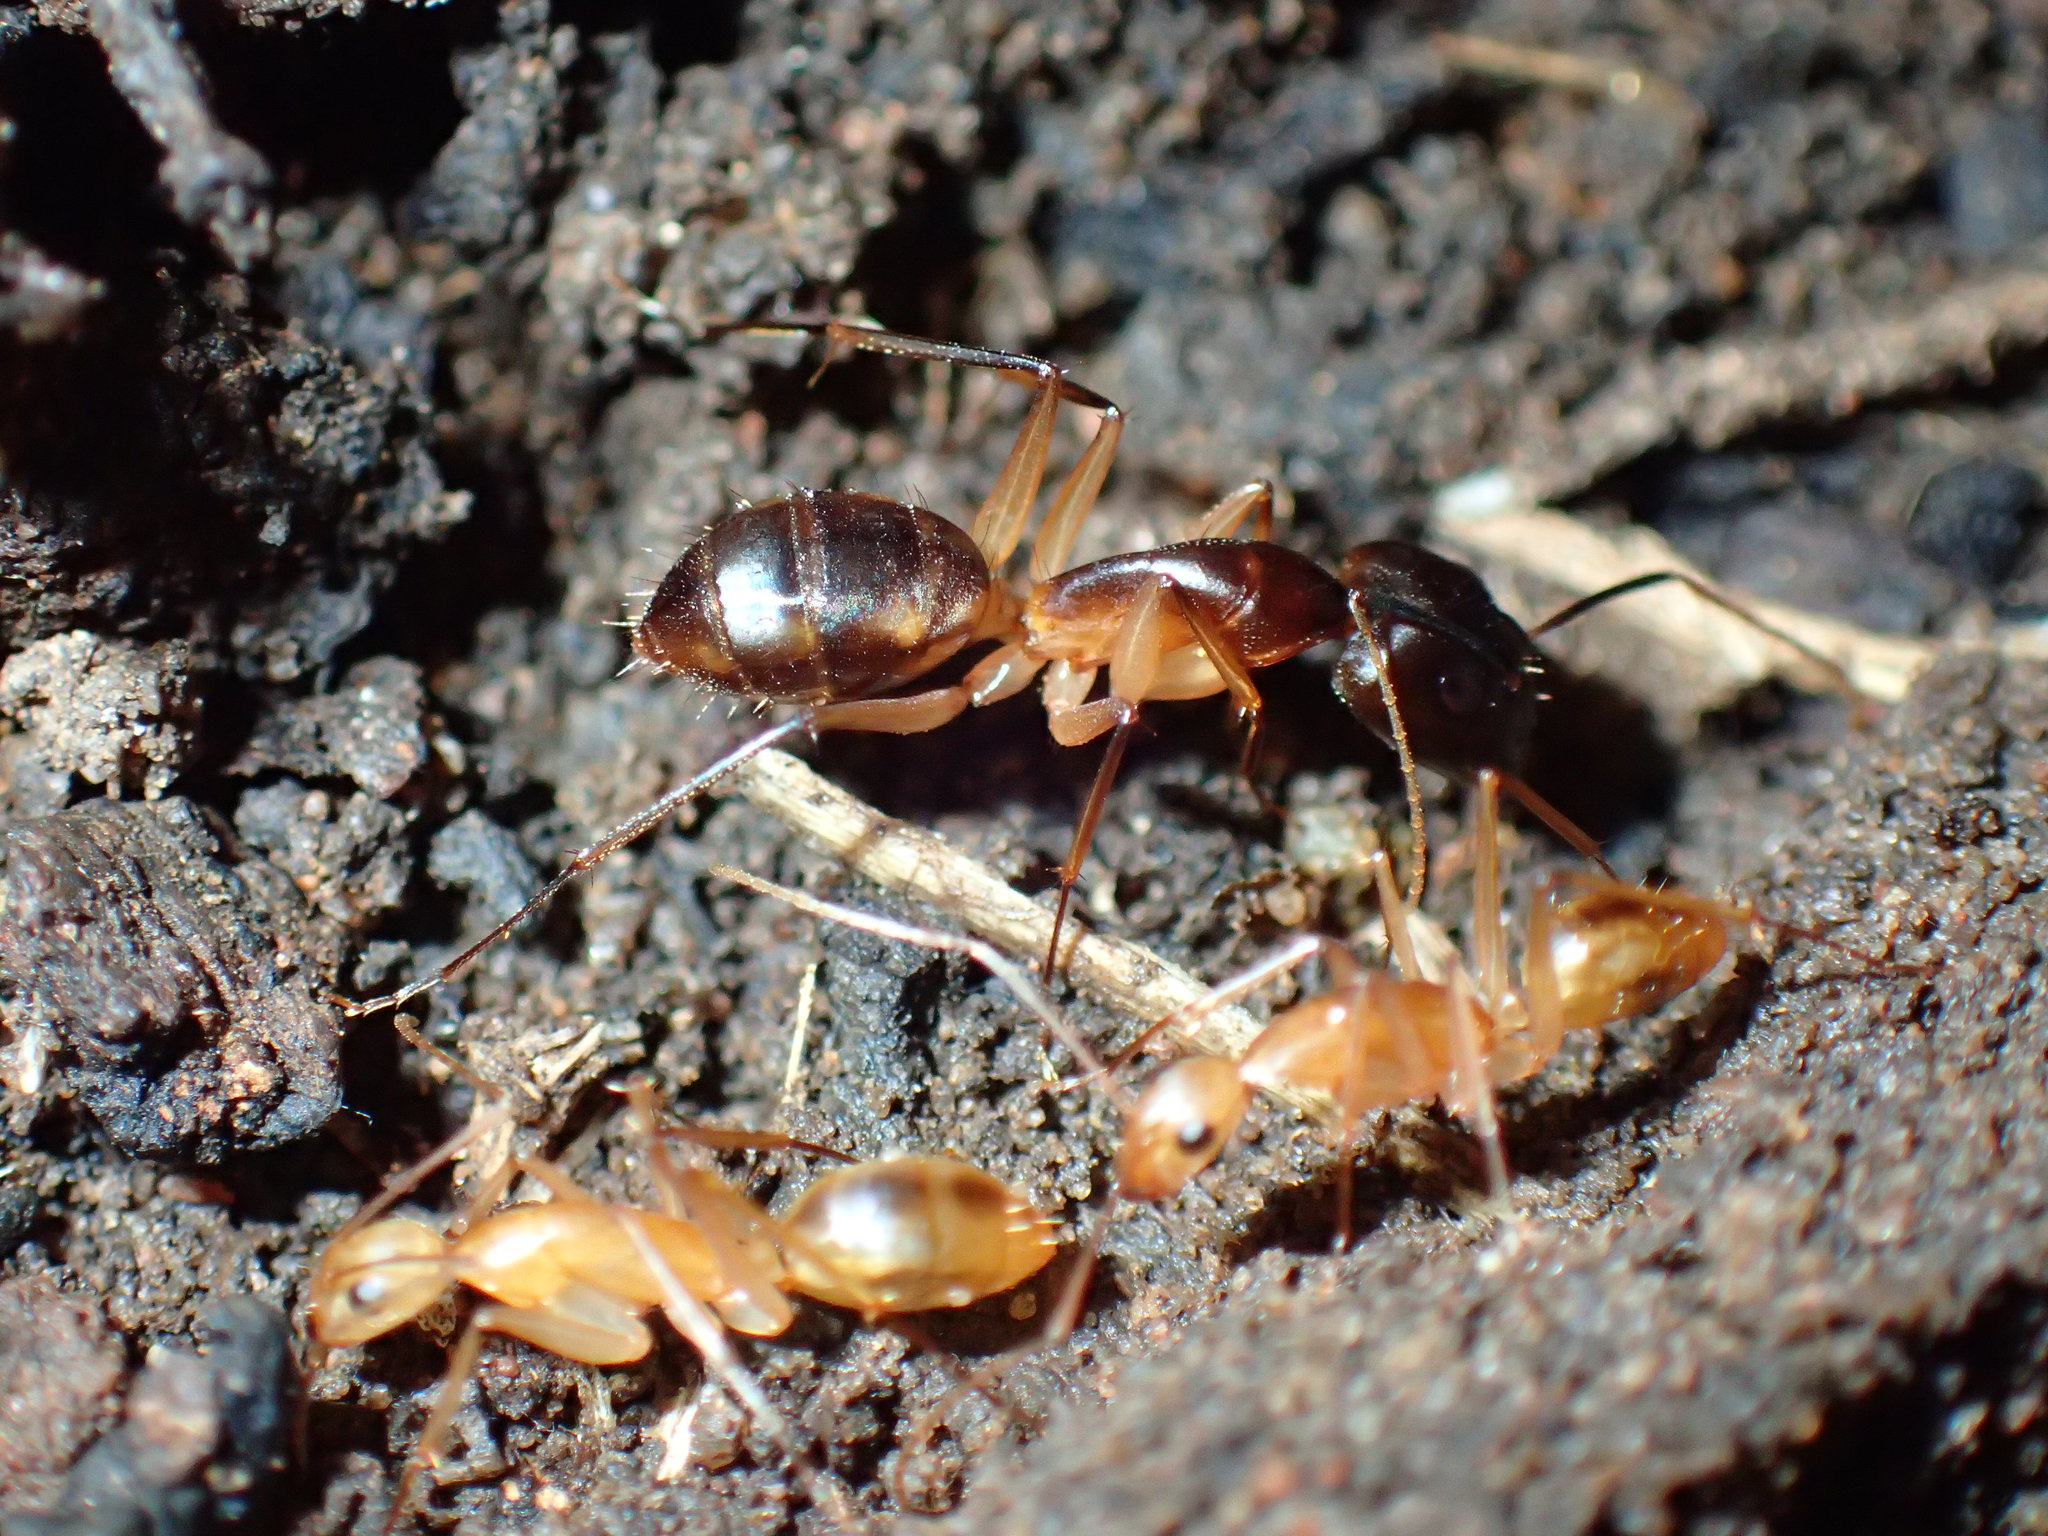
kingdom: Animalia
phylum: Arthropoda
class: Insecta
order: Hymenoptera
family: Formicidae
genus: Camponotus
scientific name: Camponotus maculatus
